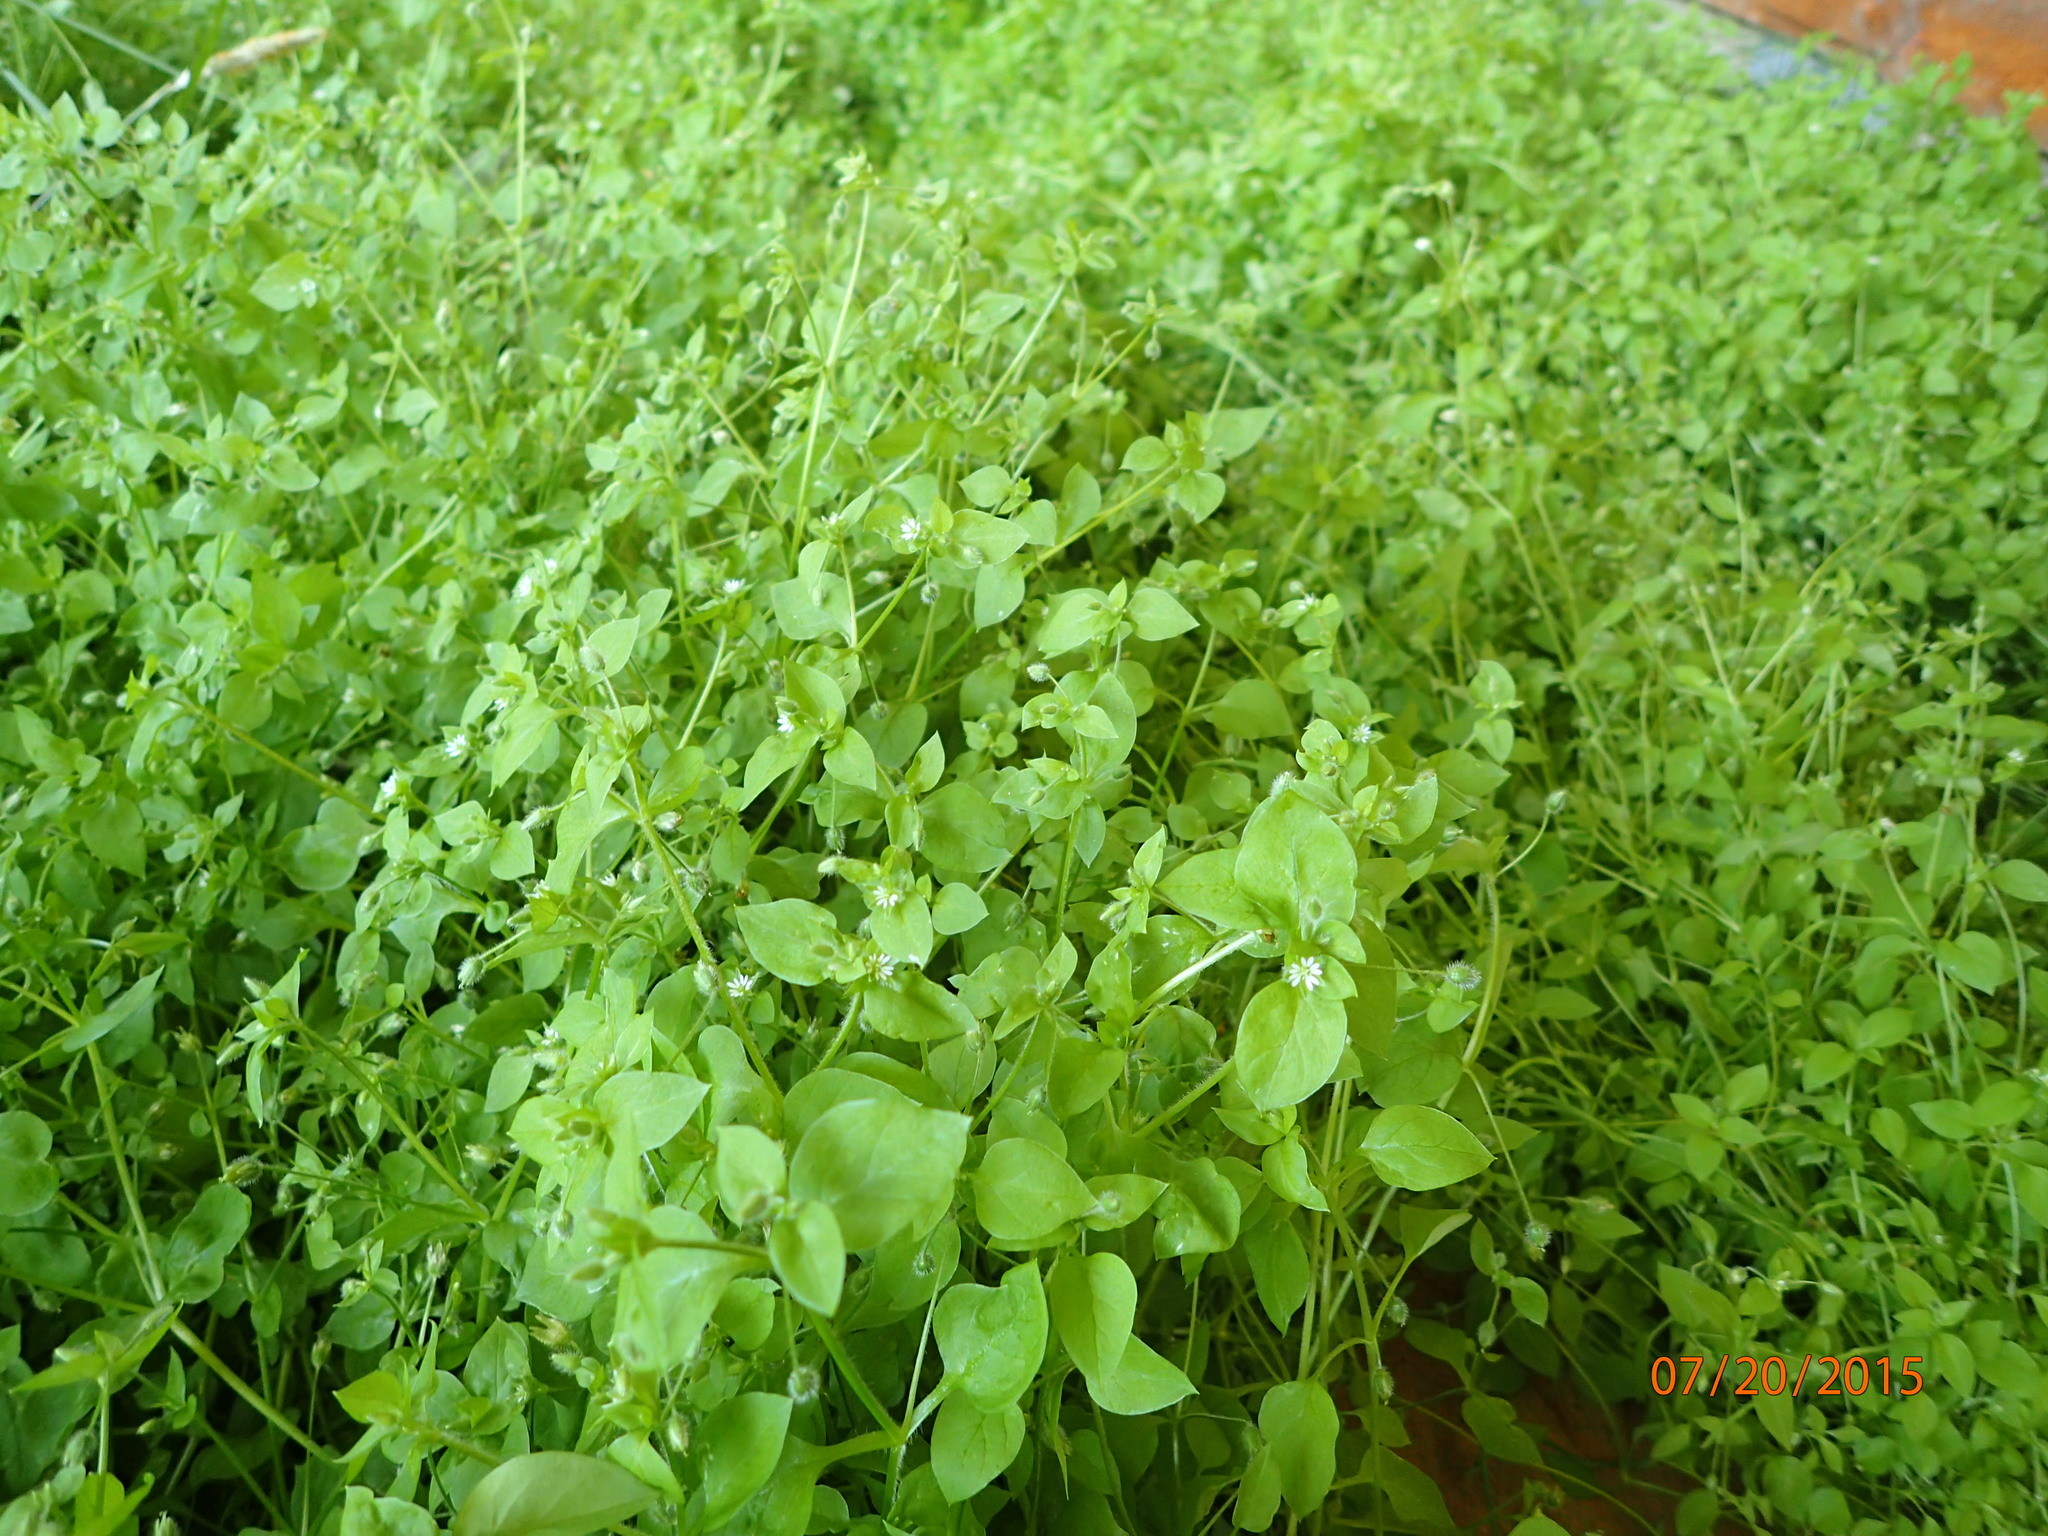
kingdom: Plantae
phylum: Tracheophyta
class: Magnoliopsida
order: Caryophyllales
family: Caryophyllaceae
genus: Stellaria
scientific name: Stellaria media
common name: Common chickweed
